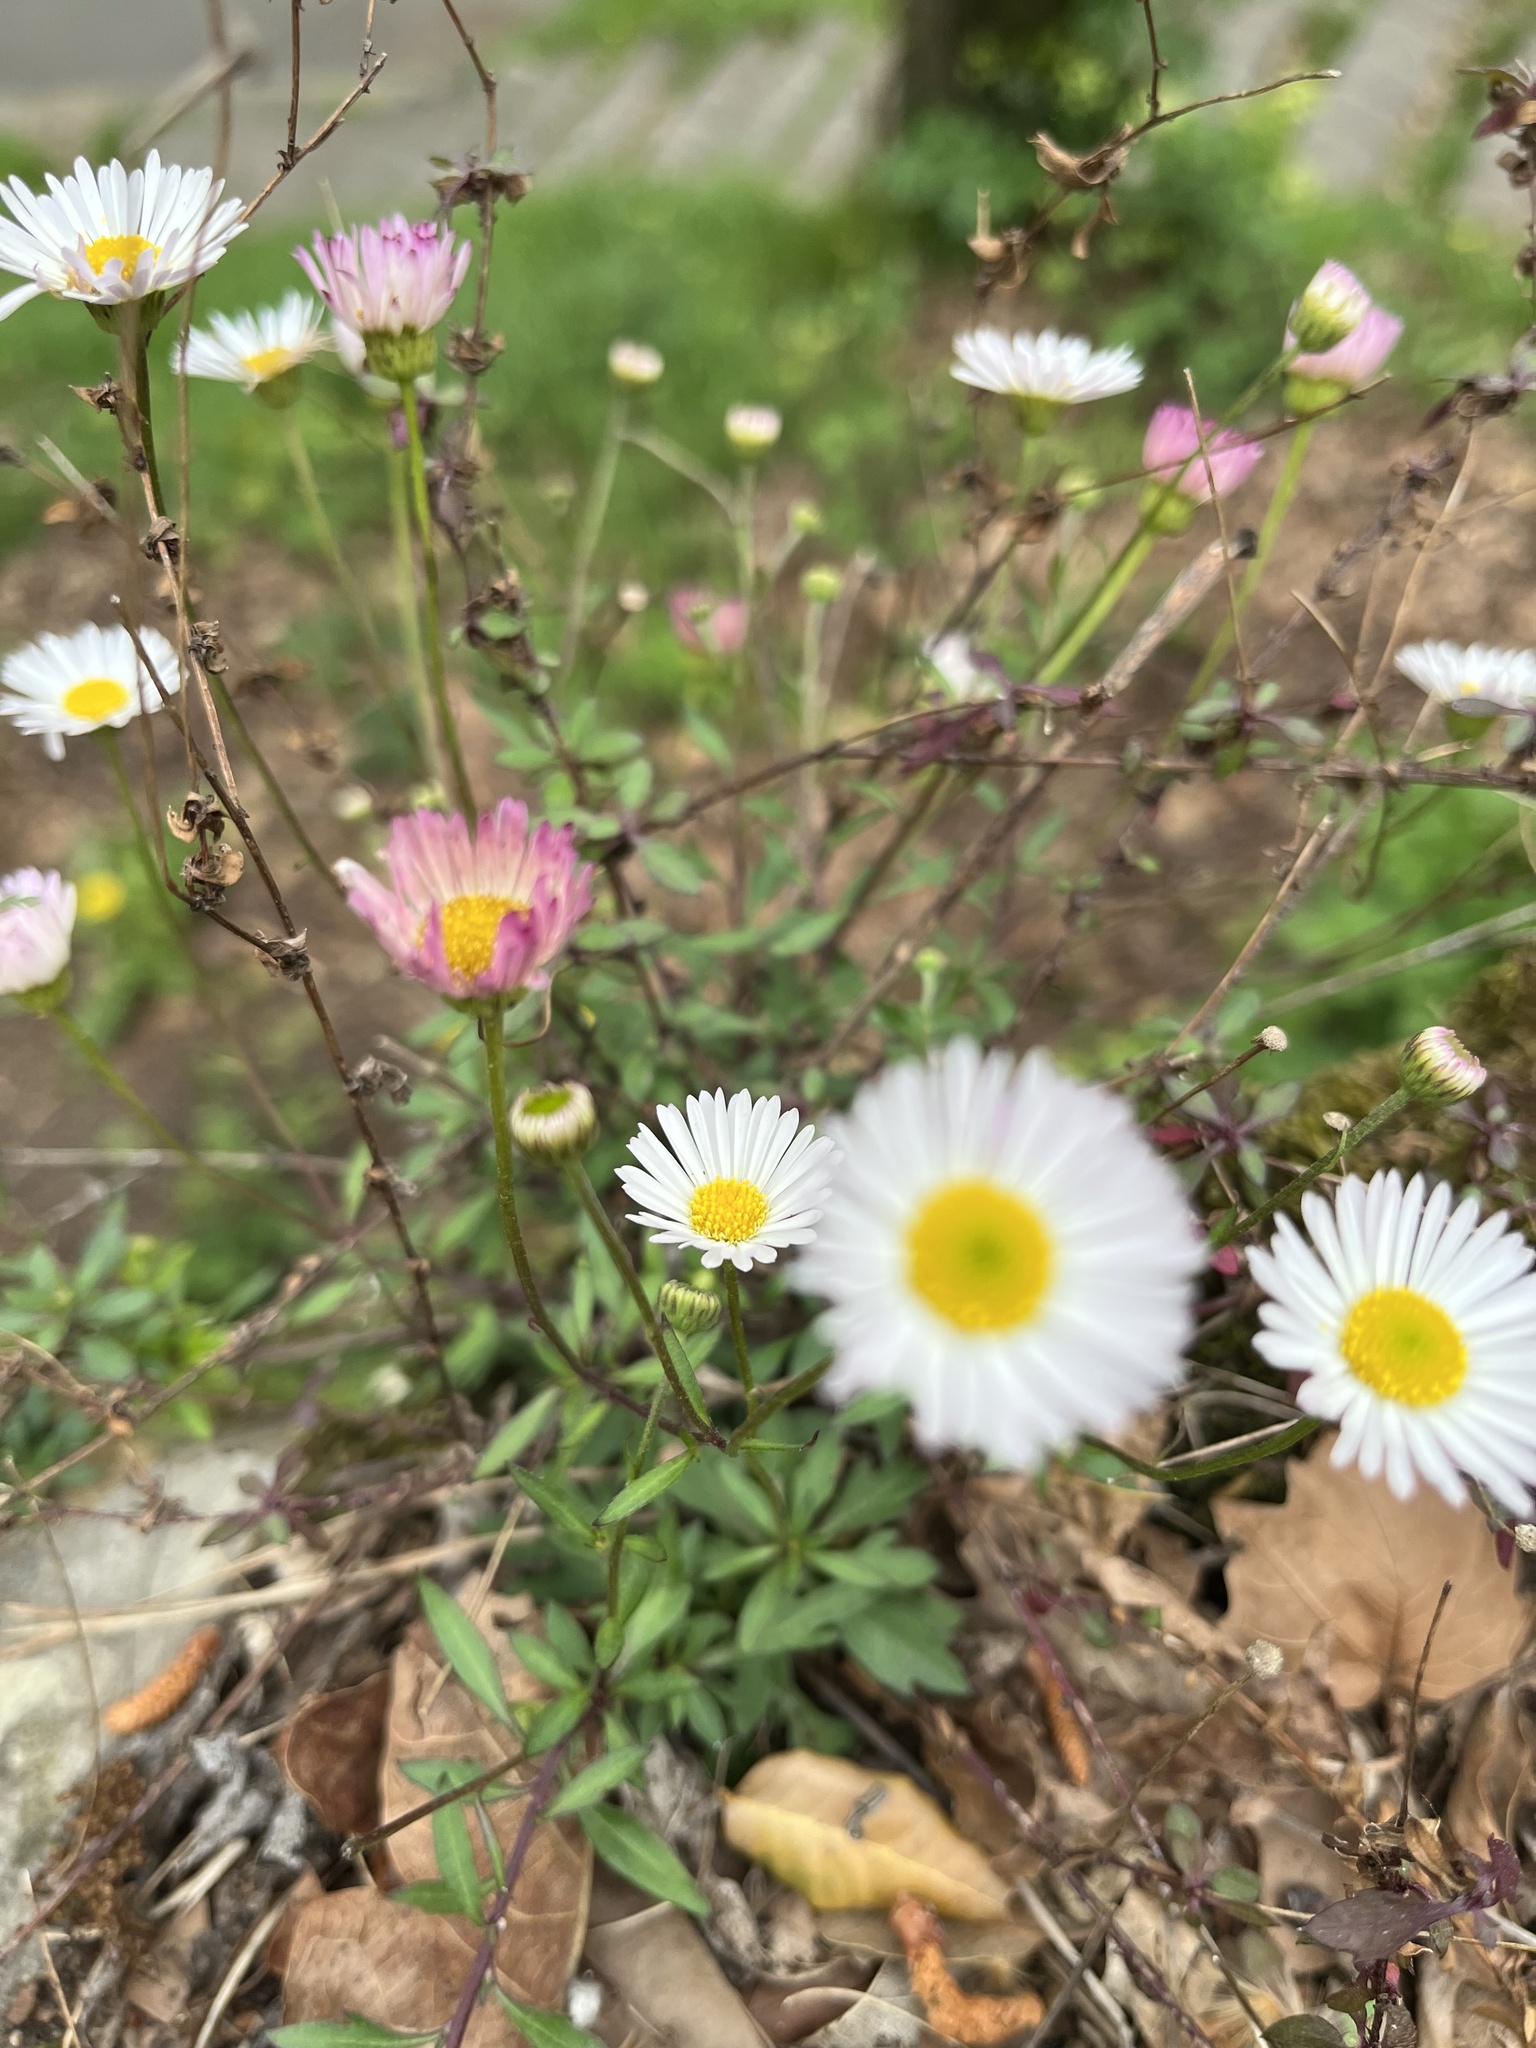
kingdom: Plantae
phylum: Tracheophyta
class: Magnoliopsida
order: Asterales
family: Asteraceae
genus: Erigeron
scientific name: Erigeron karvinskianus
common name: Mexican fleabane
